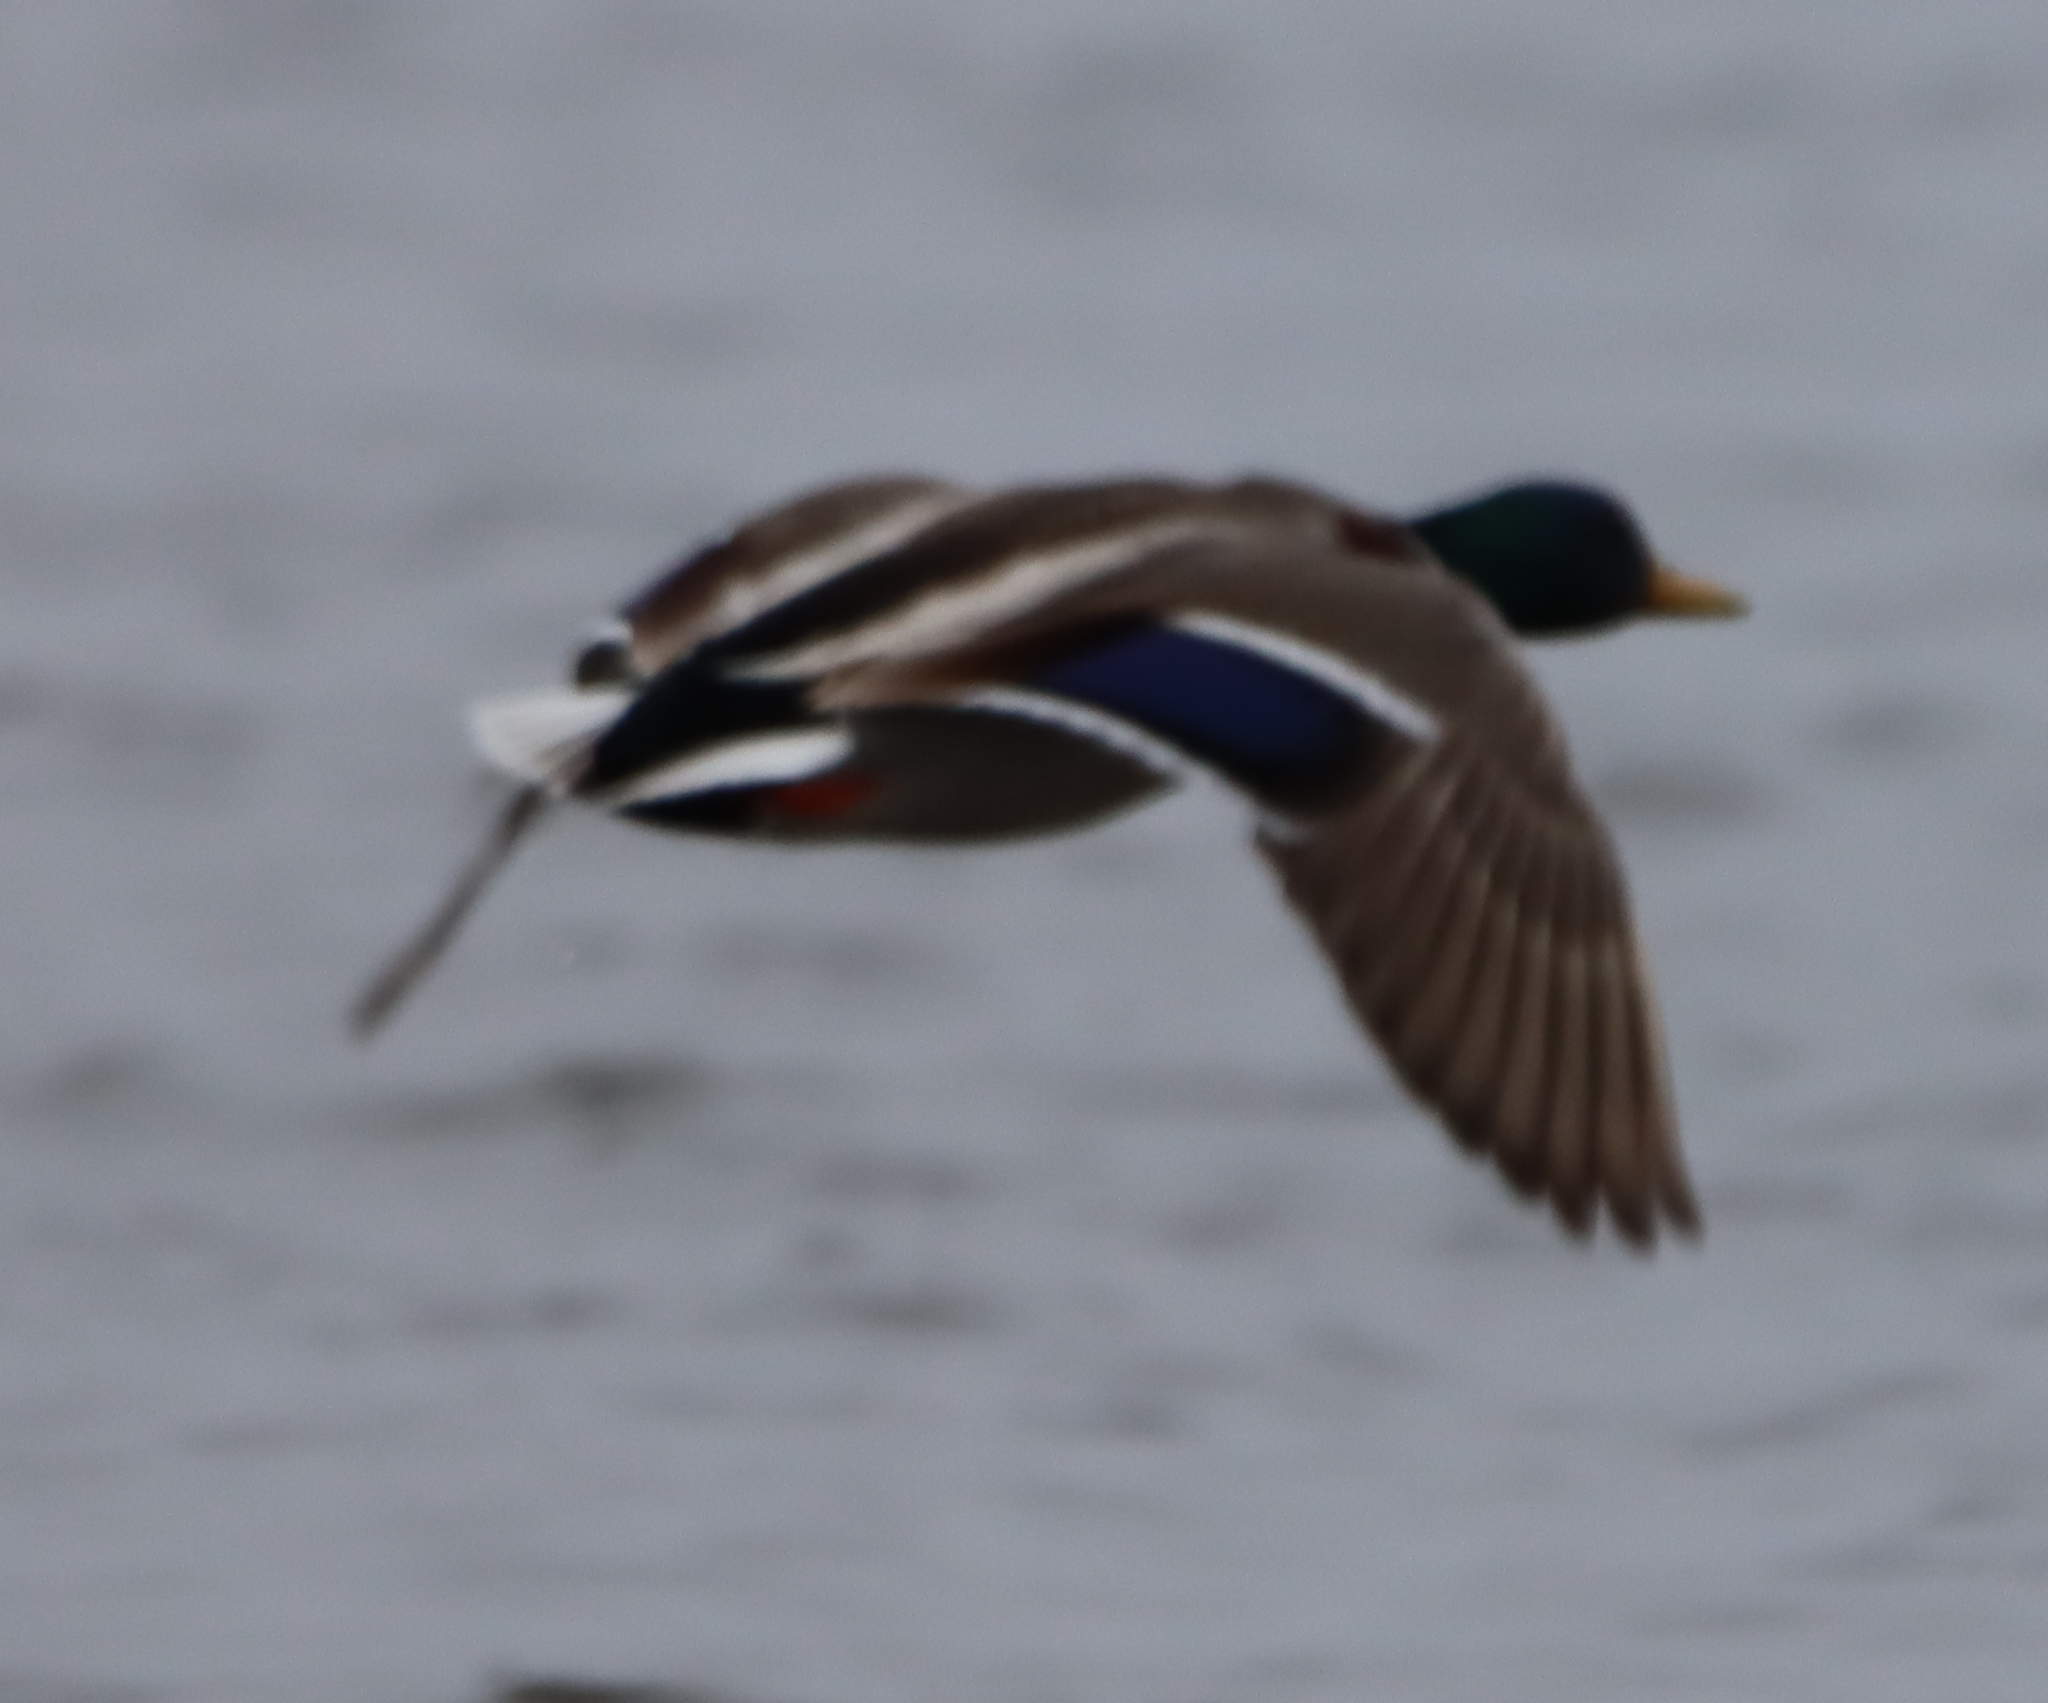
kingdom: Animalia
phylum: Chordata
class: Aves
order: Anseriformes
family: Anatidae
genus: Anas
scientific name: Anas platyrhynchos
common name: Mallard
